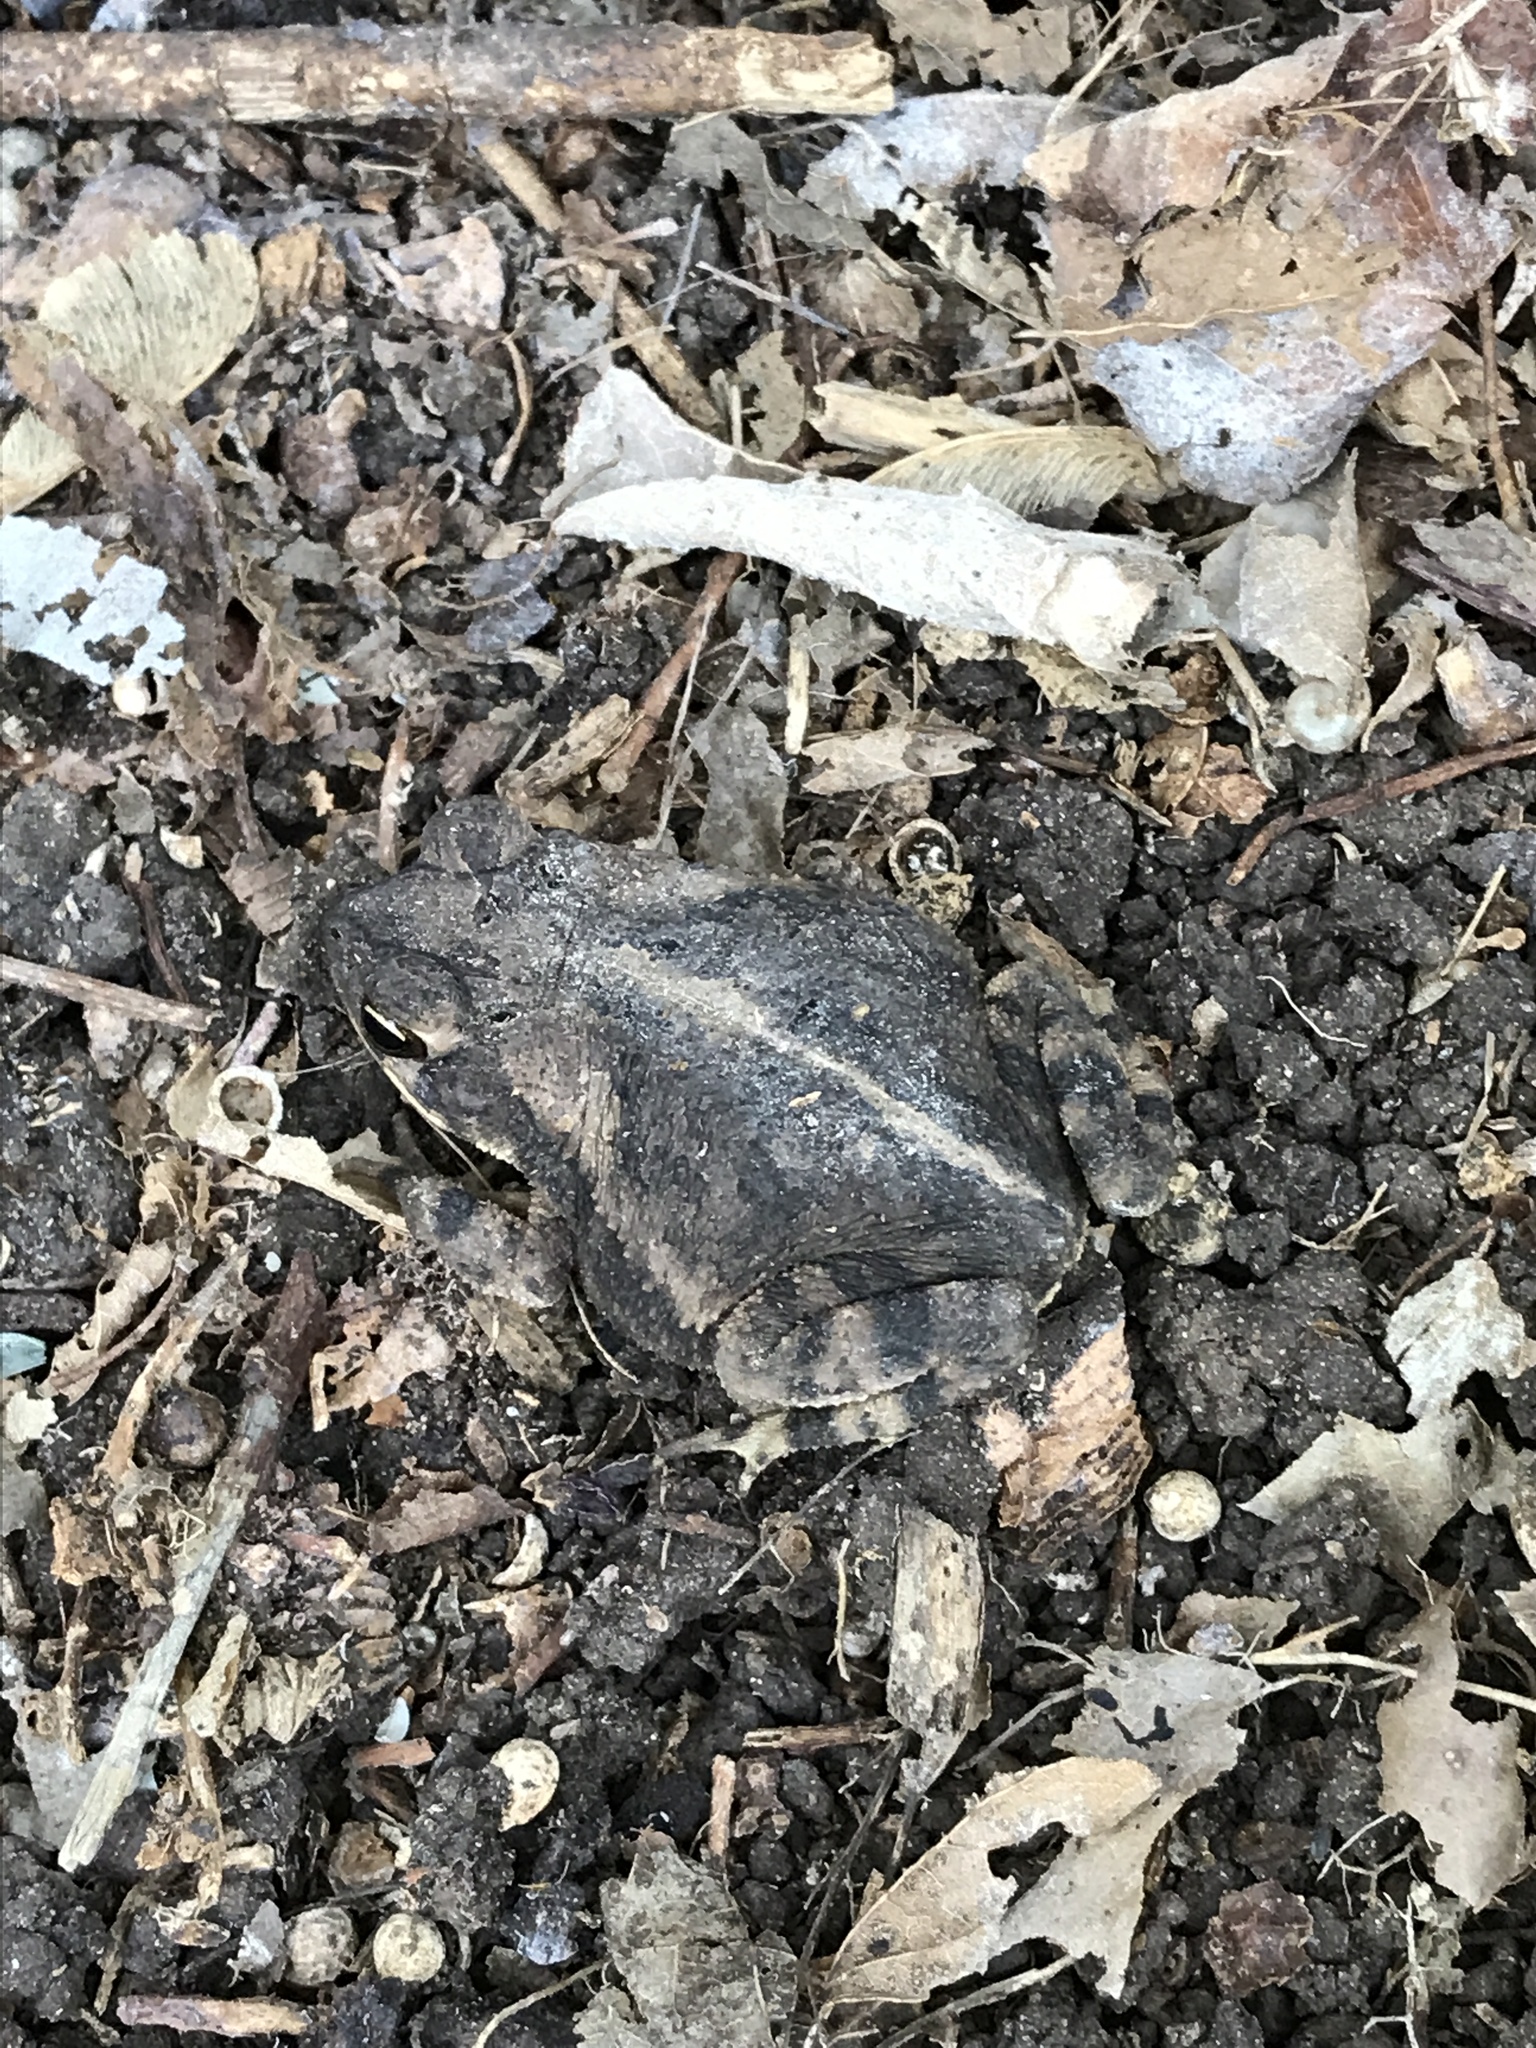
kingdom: Animalia
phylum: Chordata
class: Amphibia
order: Anura
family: Bufonidae
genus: Incilius
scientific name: Incilius nebulifer
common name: Gulf coast toad
